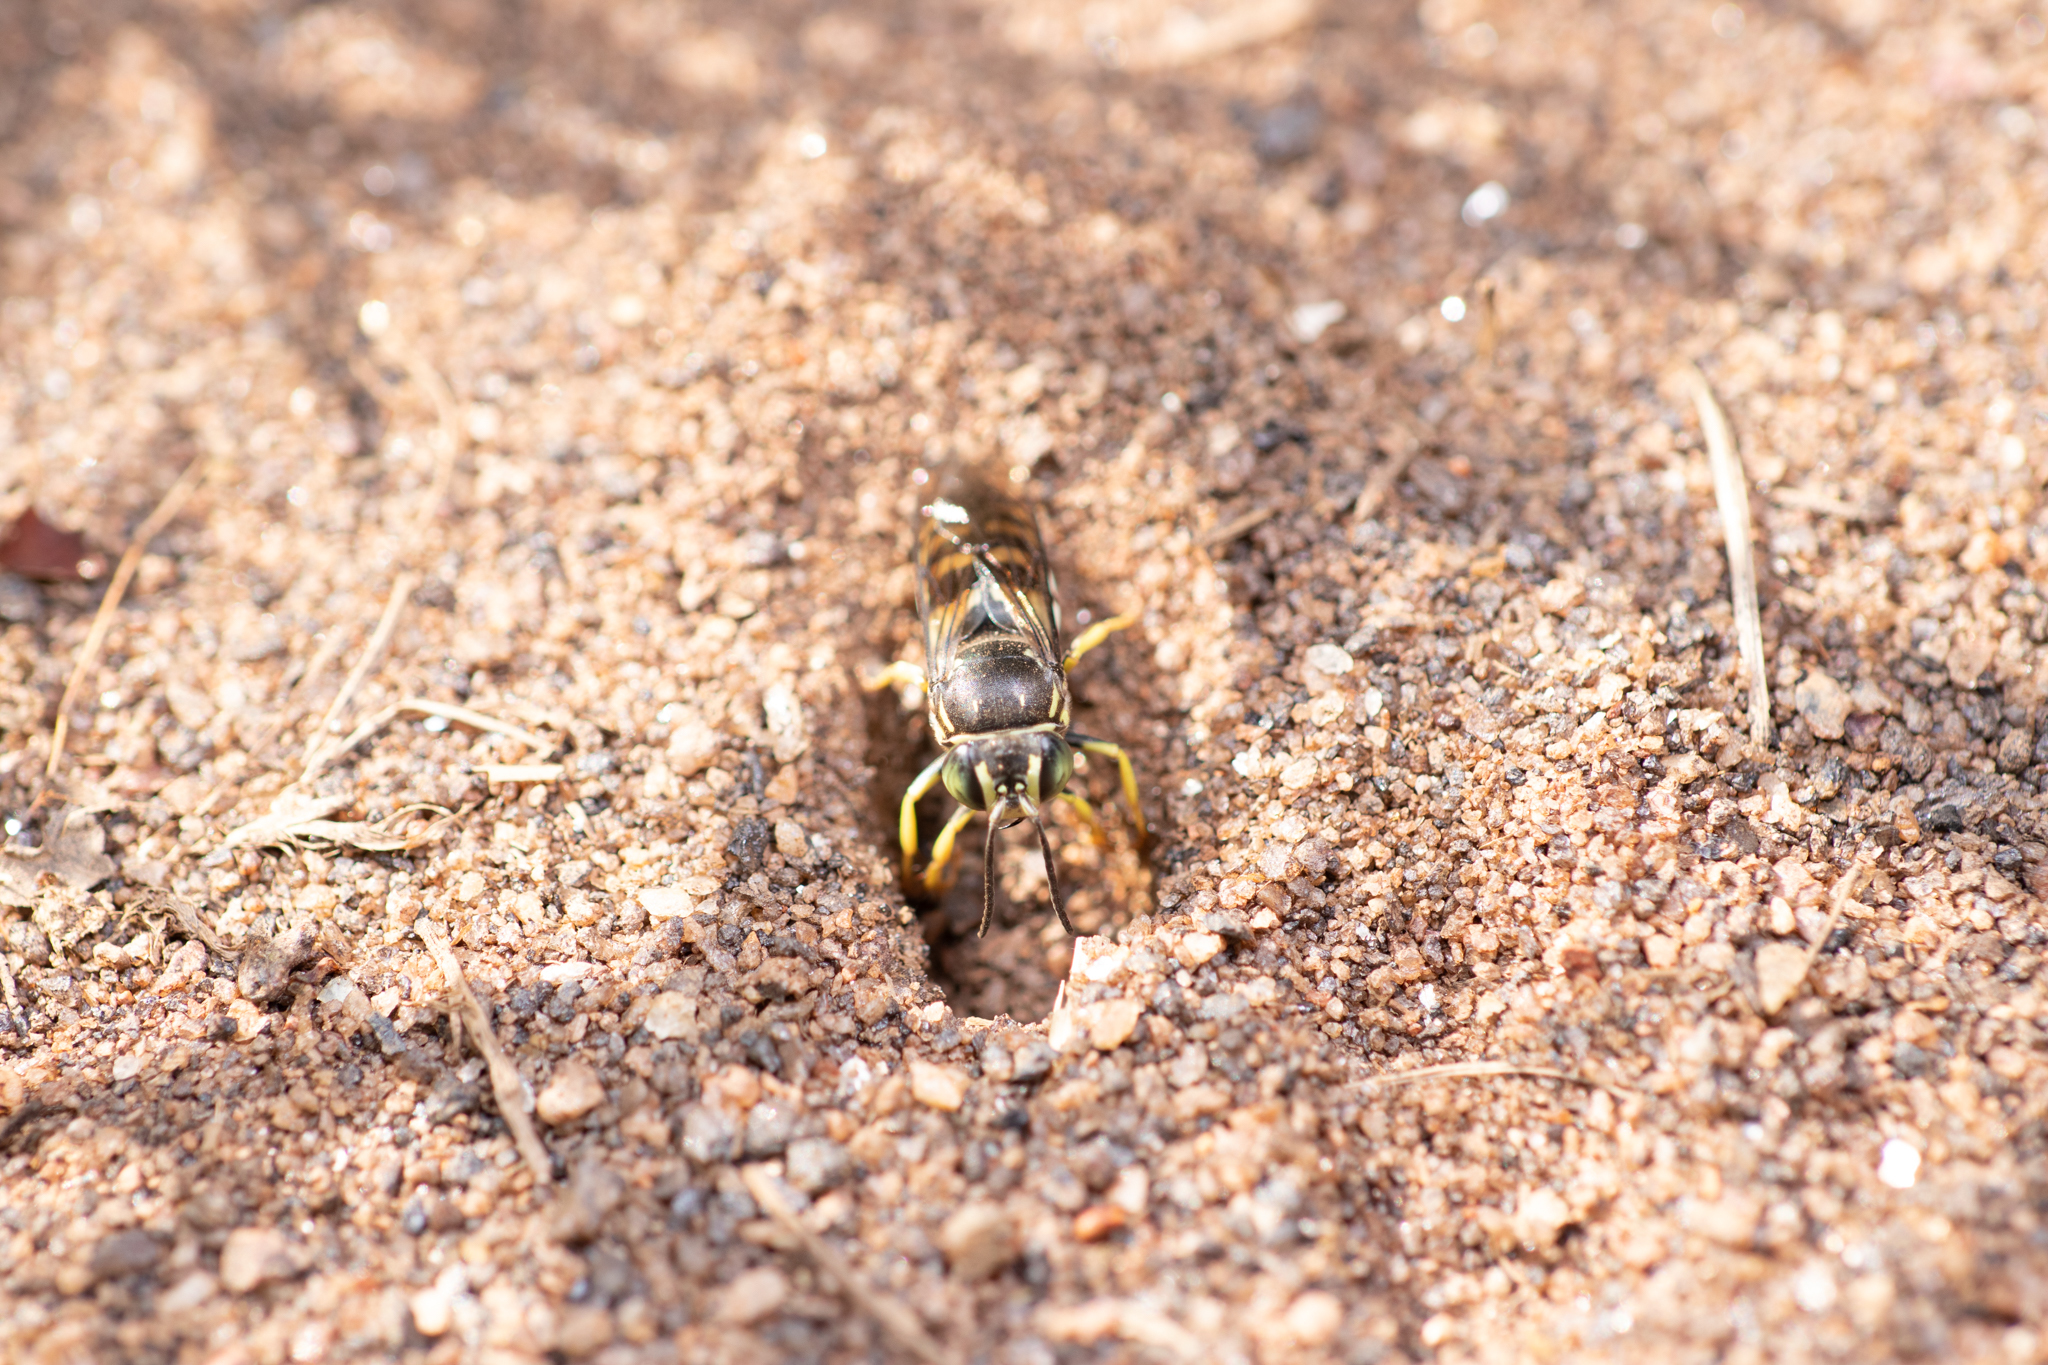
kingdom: Animalia
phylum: Arthropoda
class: Insecta
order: Hymenoptera
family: Crabronidae
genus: Bicyrtes
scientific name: Bicyrtes quadrifasciatus
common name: Four-banded stink bug hunter wasp
